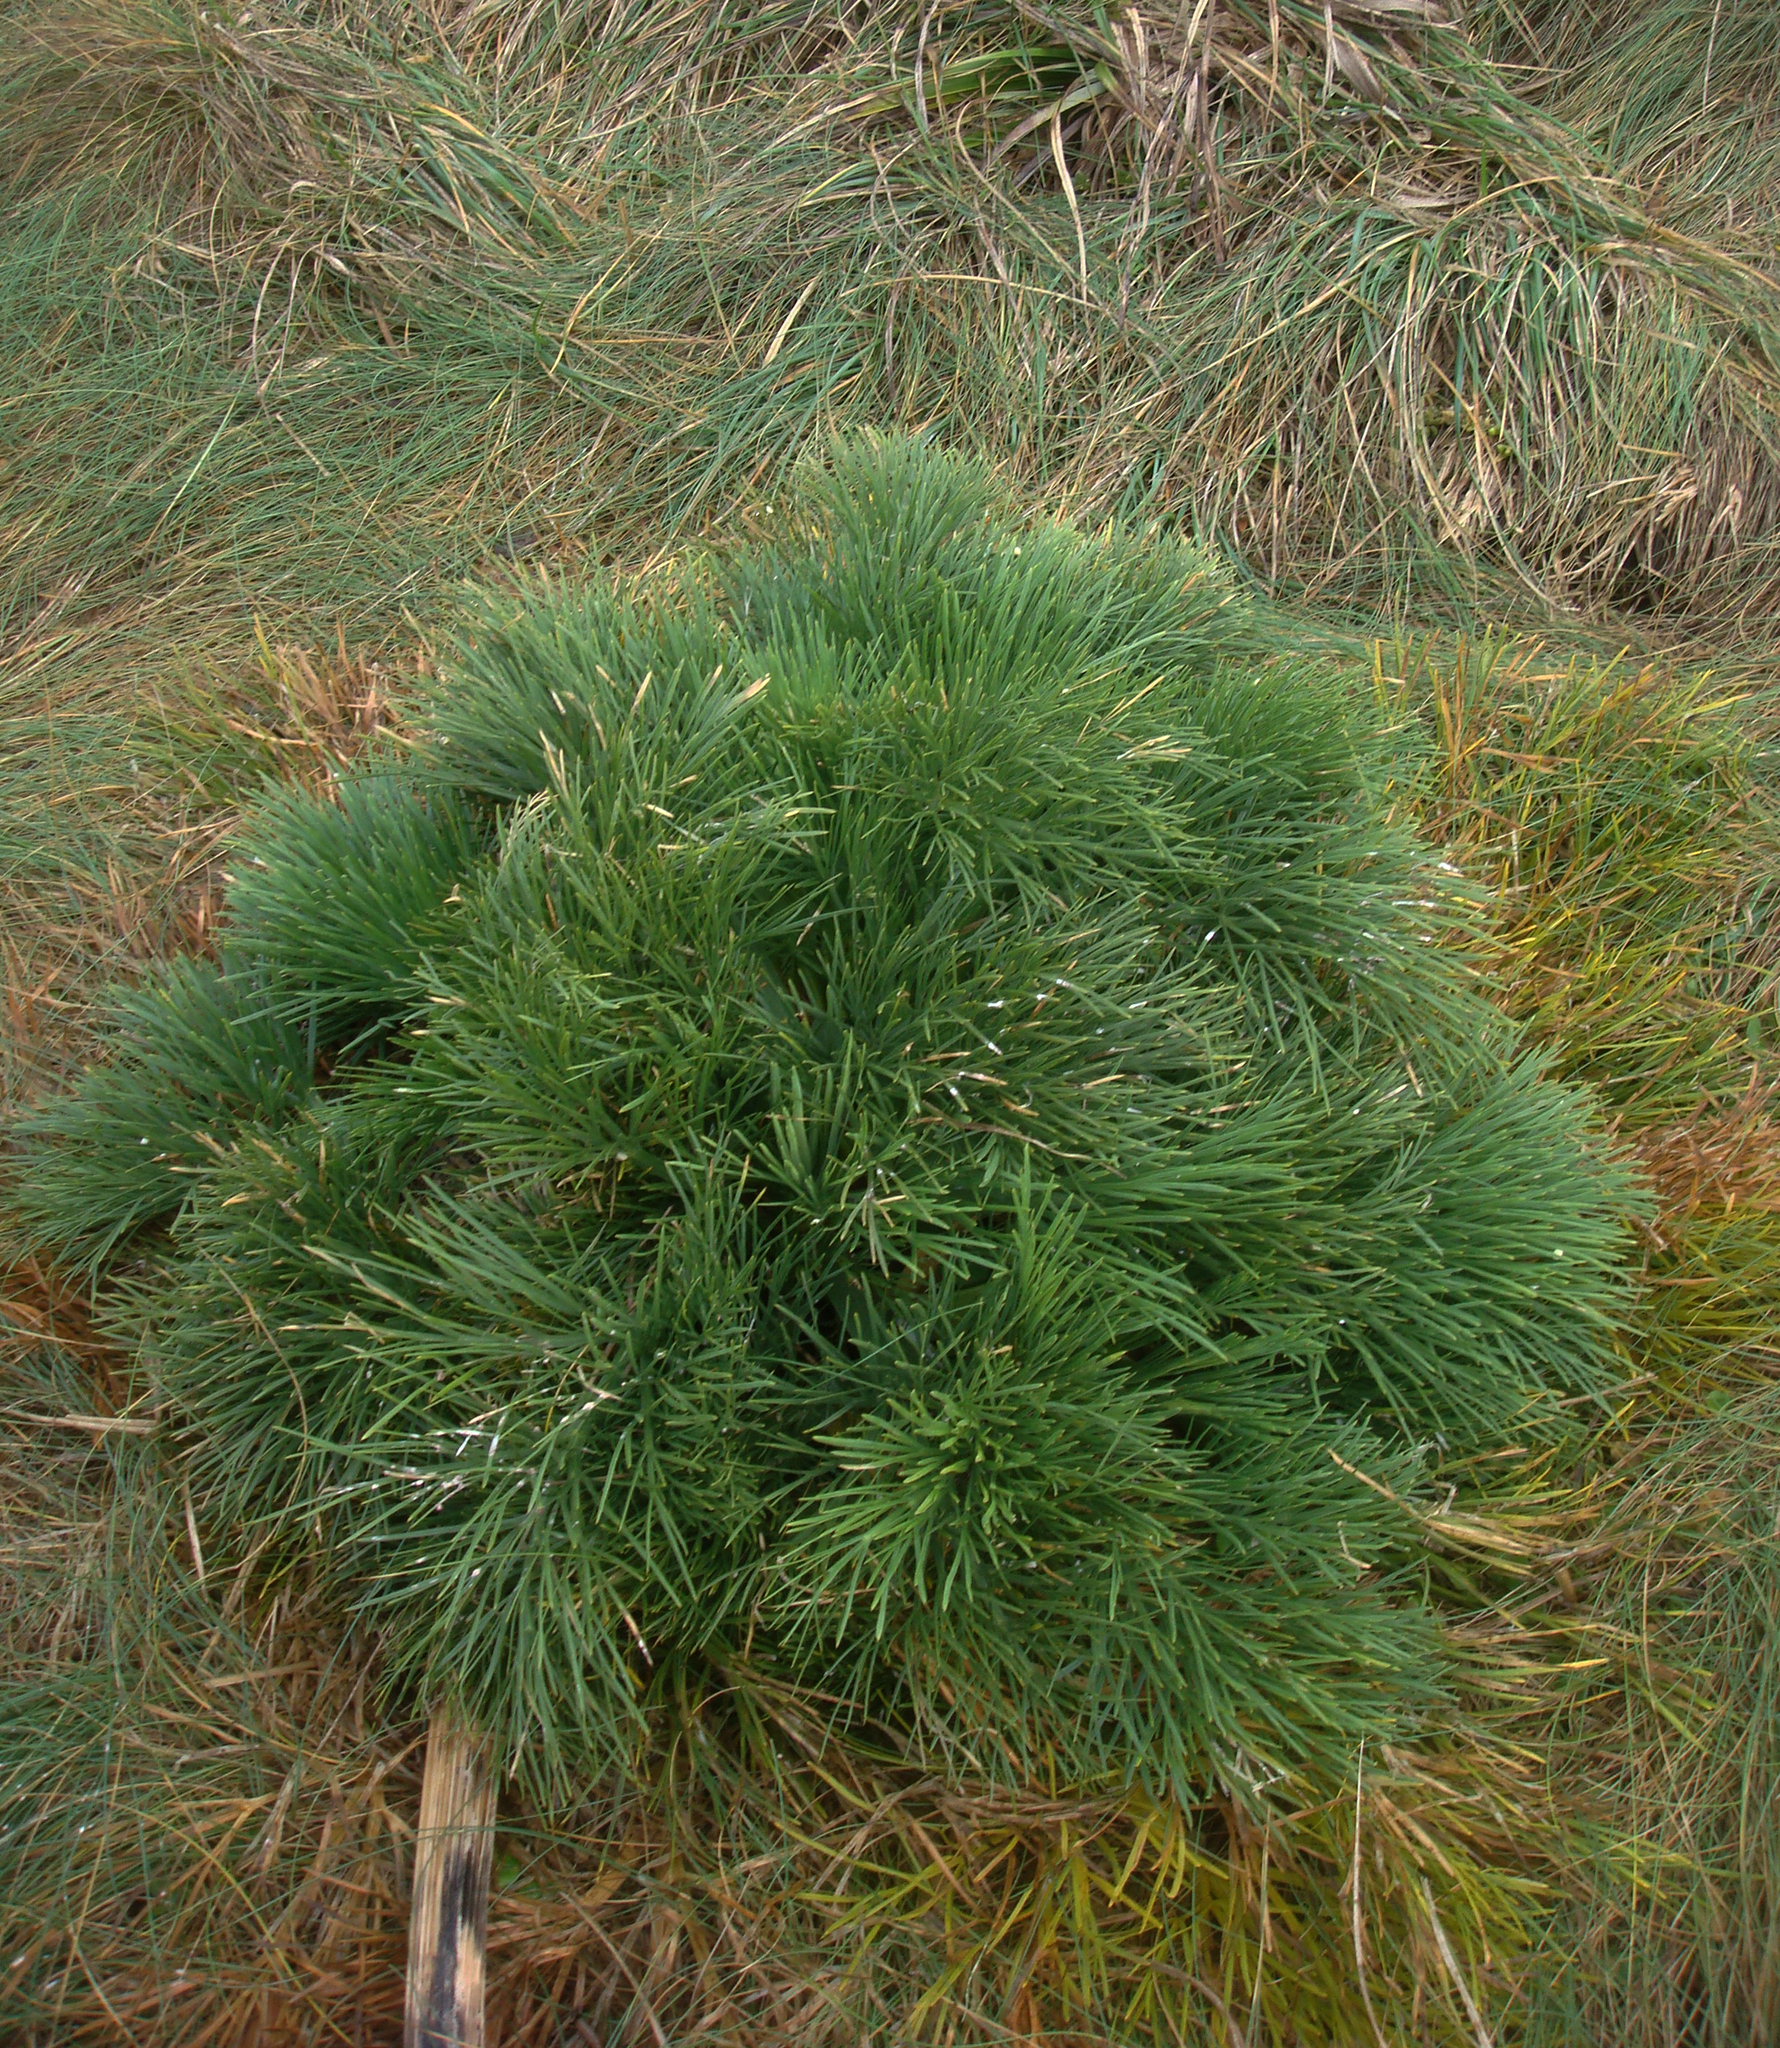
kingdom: Plantae
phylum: Tracheophyta
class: Magnoliopsida
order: Apiales
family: Apiaceae
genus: Aciphylla
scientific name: Aciphylla dieffenbachii
